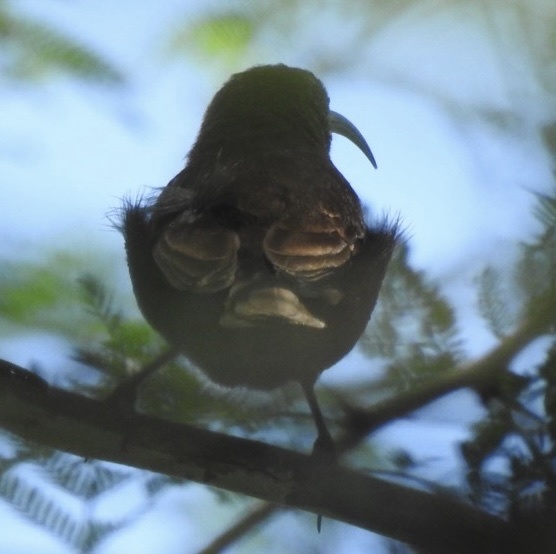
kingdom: Animalia
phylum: Chordata
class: Aves
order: Passeriformes
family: Nectariniidae
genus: Chalcomitra
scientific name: Chalcomitra senegalensis
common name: Scarlet-chested sunbird
